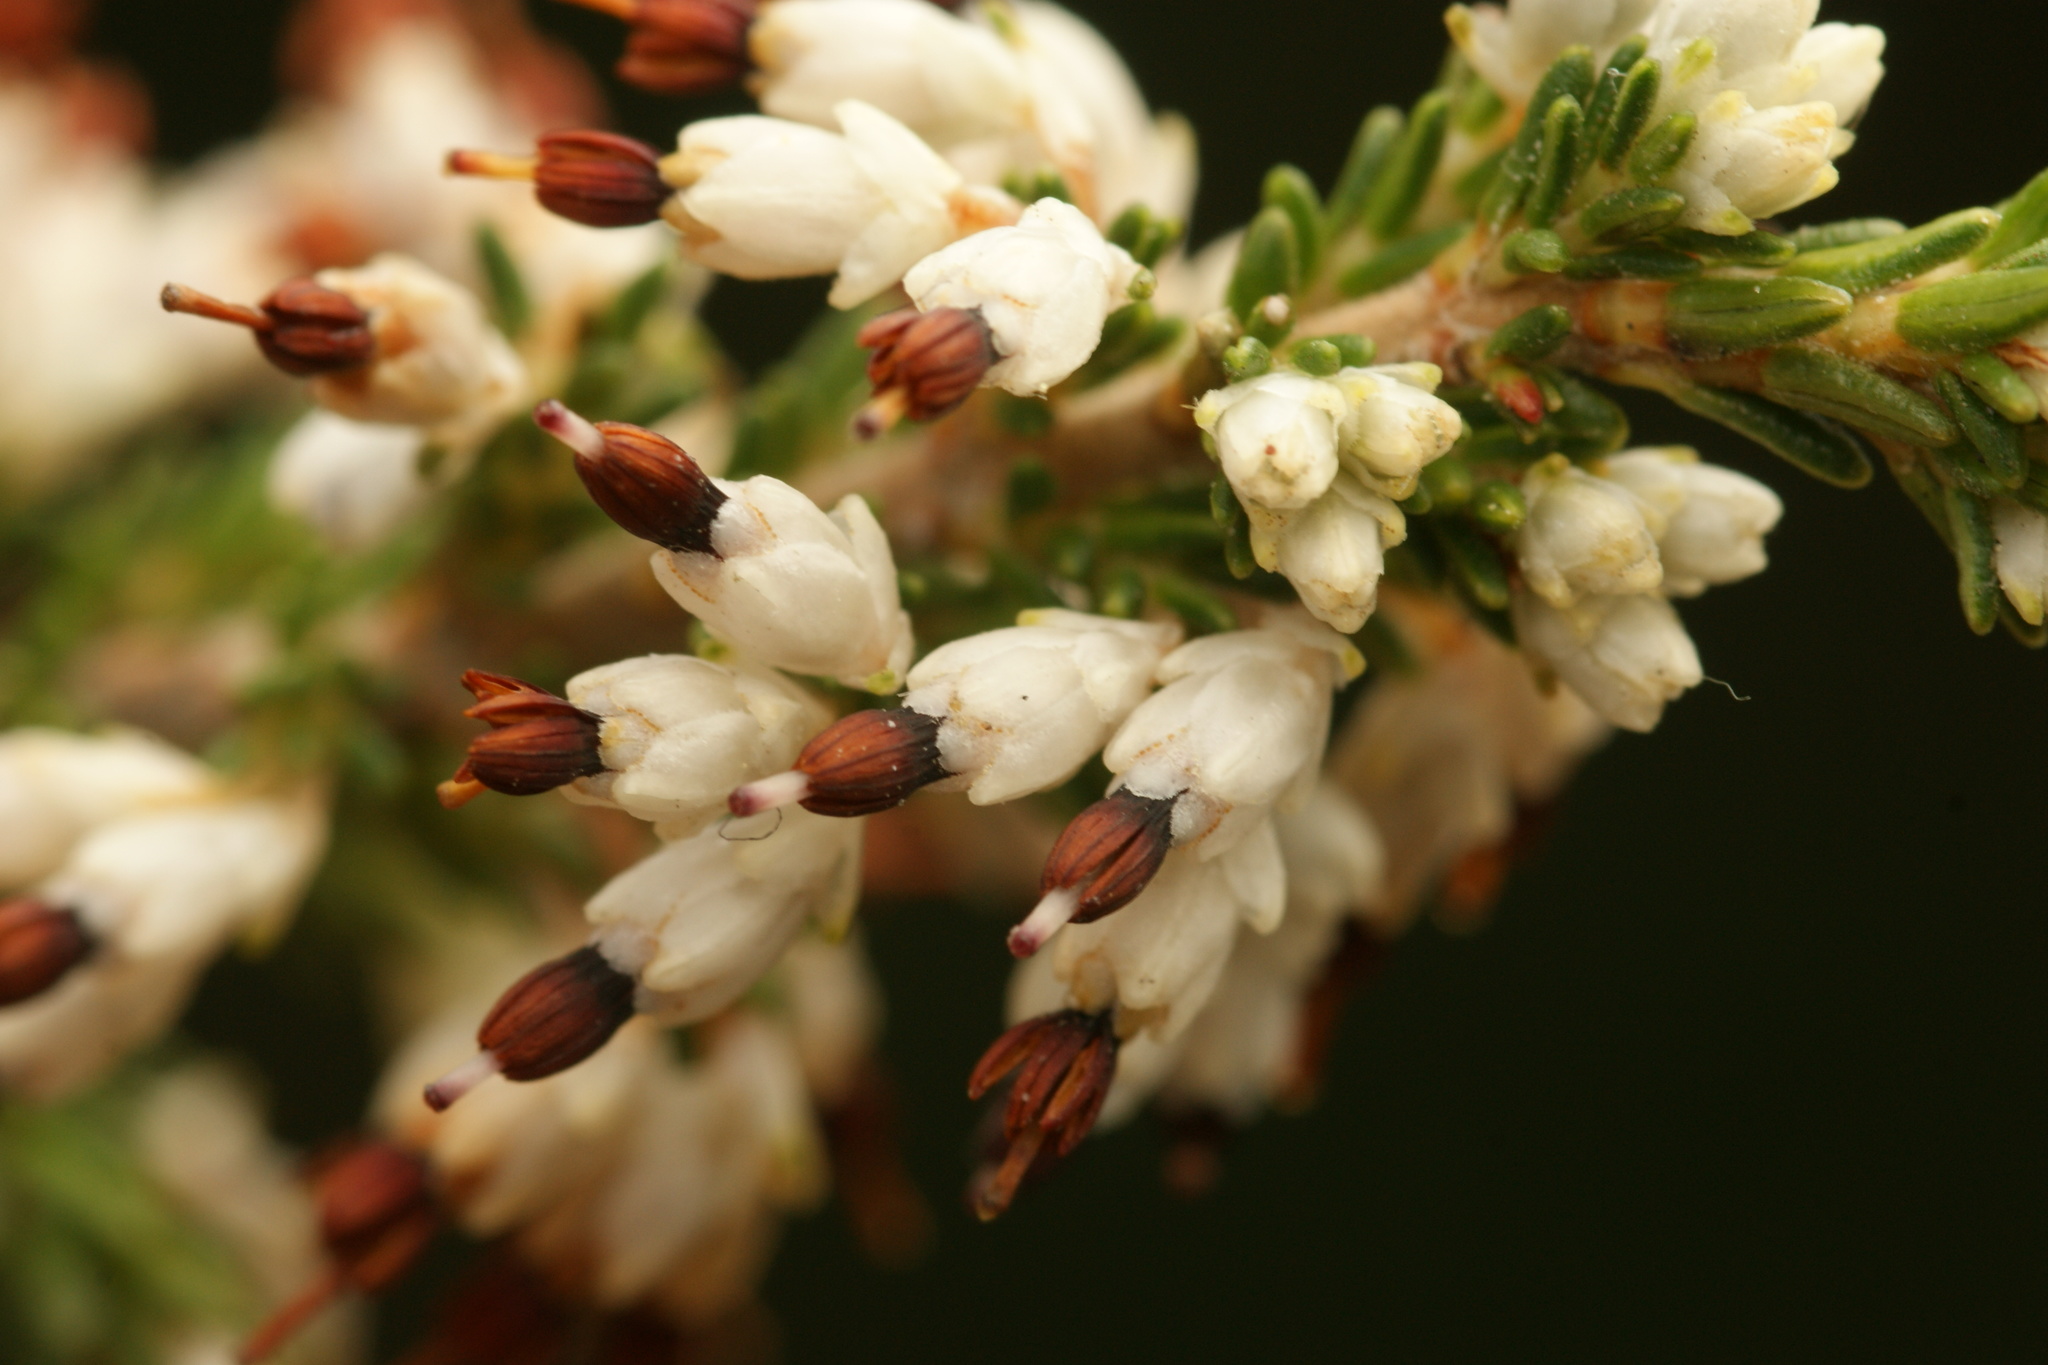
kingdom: Plantae
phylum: Tracheophyta
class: Magnoliopsida
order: Ericales
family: Ericaceae
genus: Erica
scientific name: Erica imbricata
